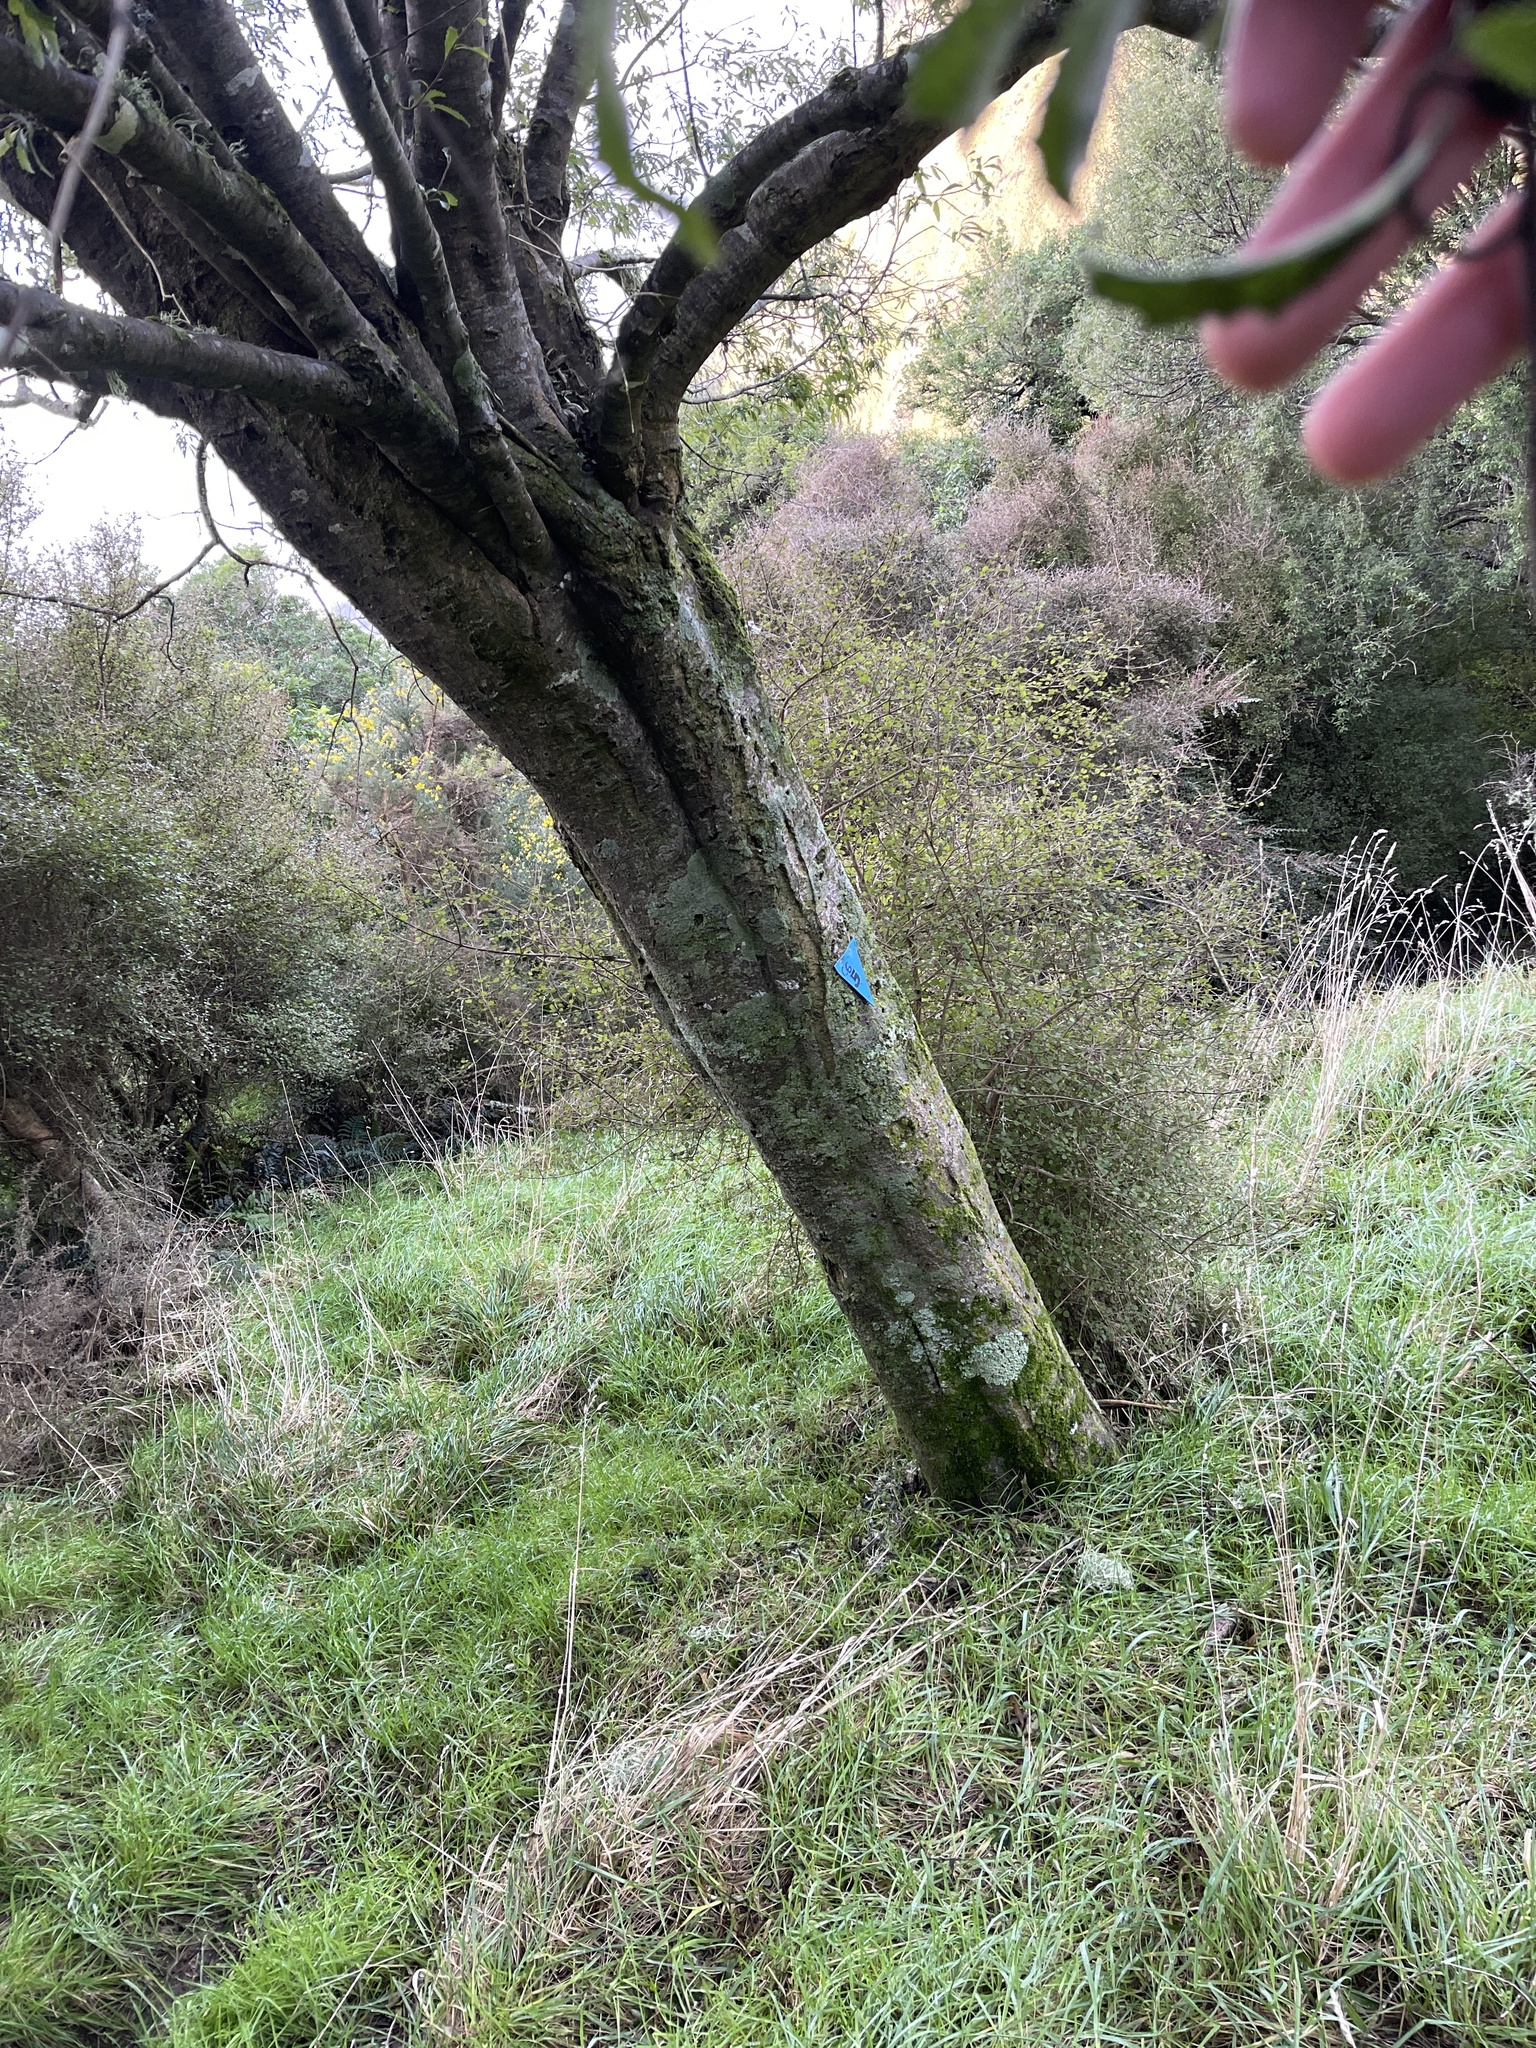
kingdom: Plantae
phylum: Tracheophyta
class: Magnoliopsida
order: Malvales
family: Malvaceae
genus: Hoheria
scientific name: Hoheria angustifolia
